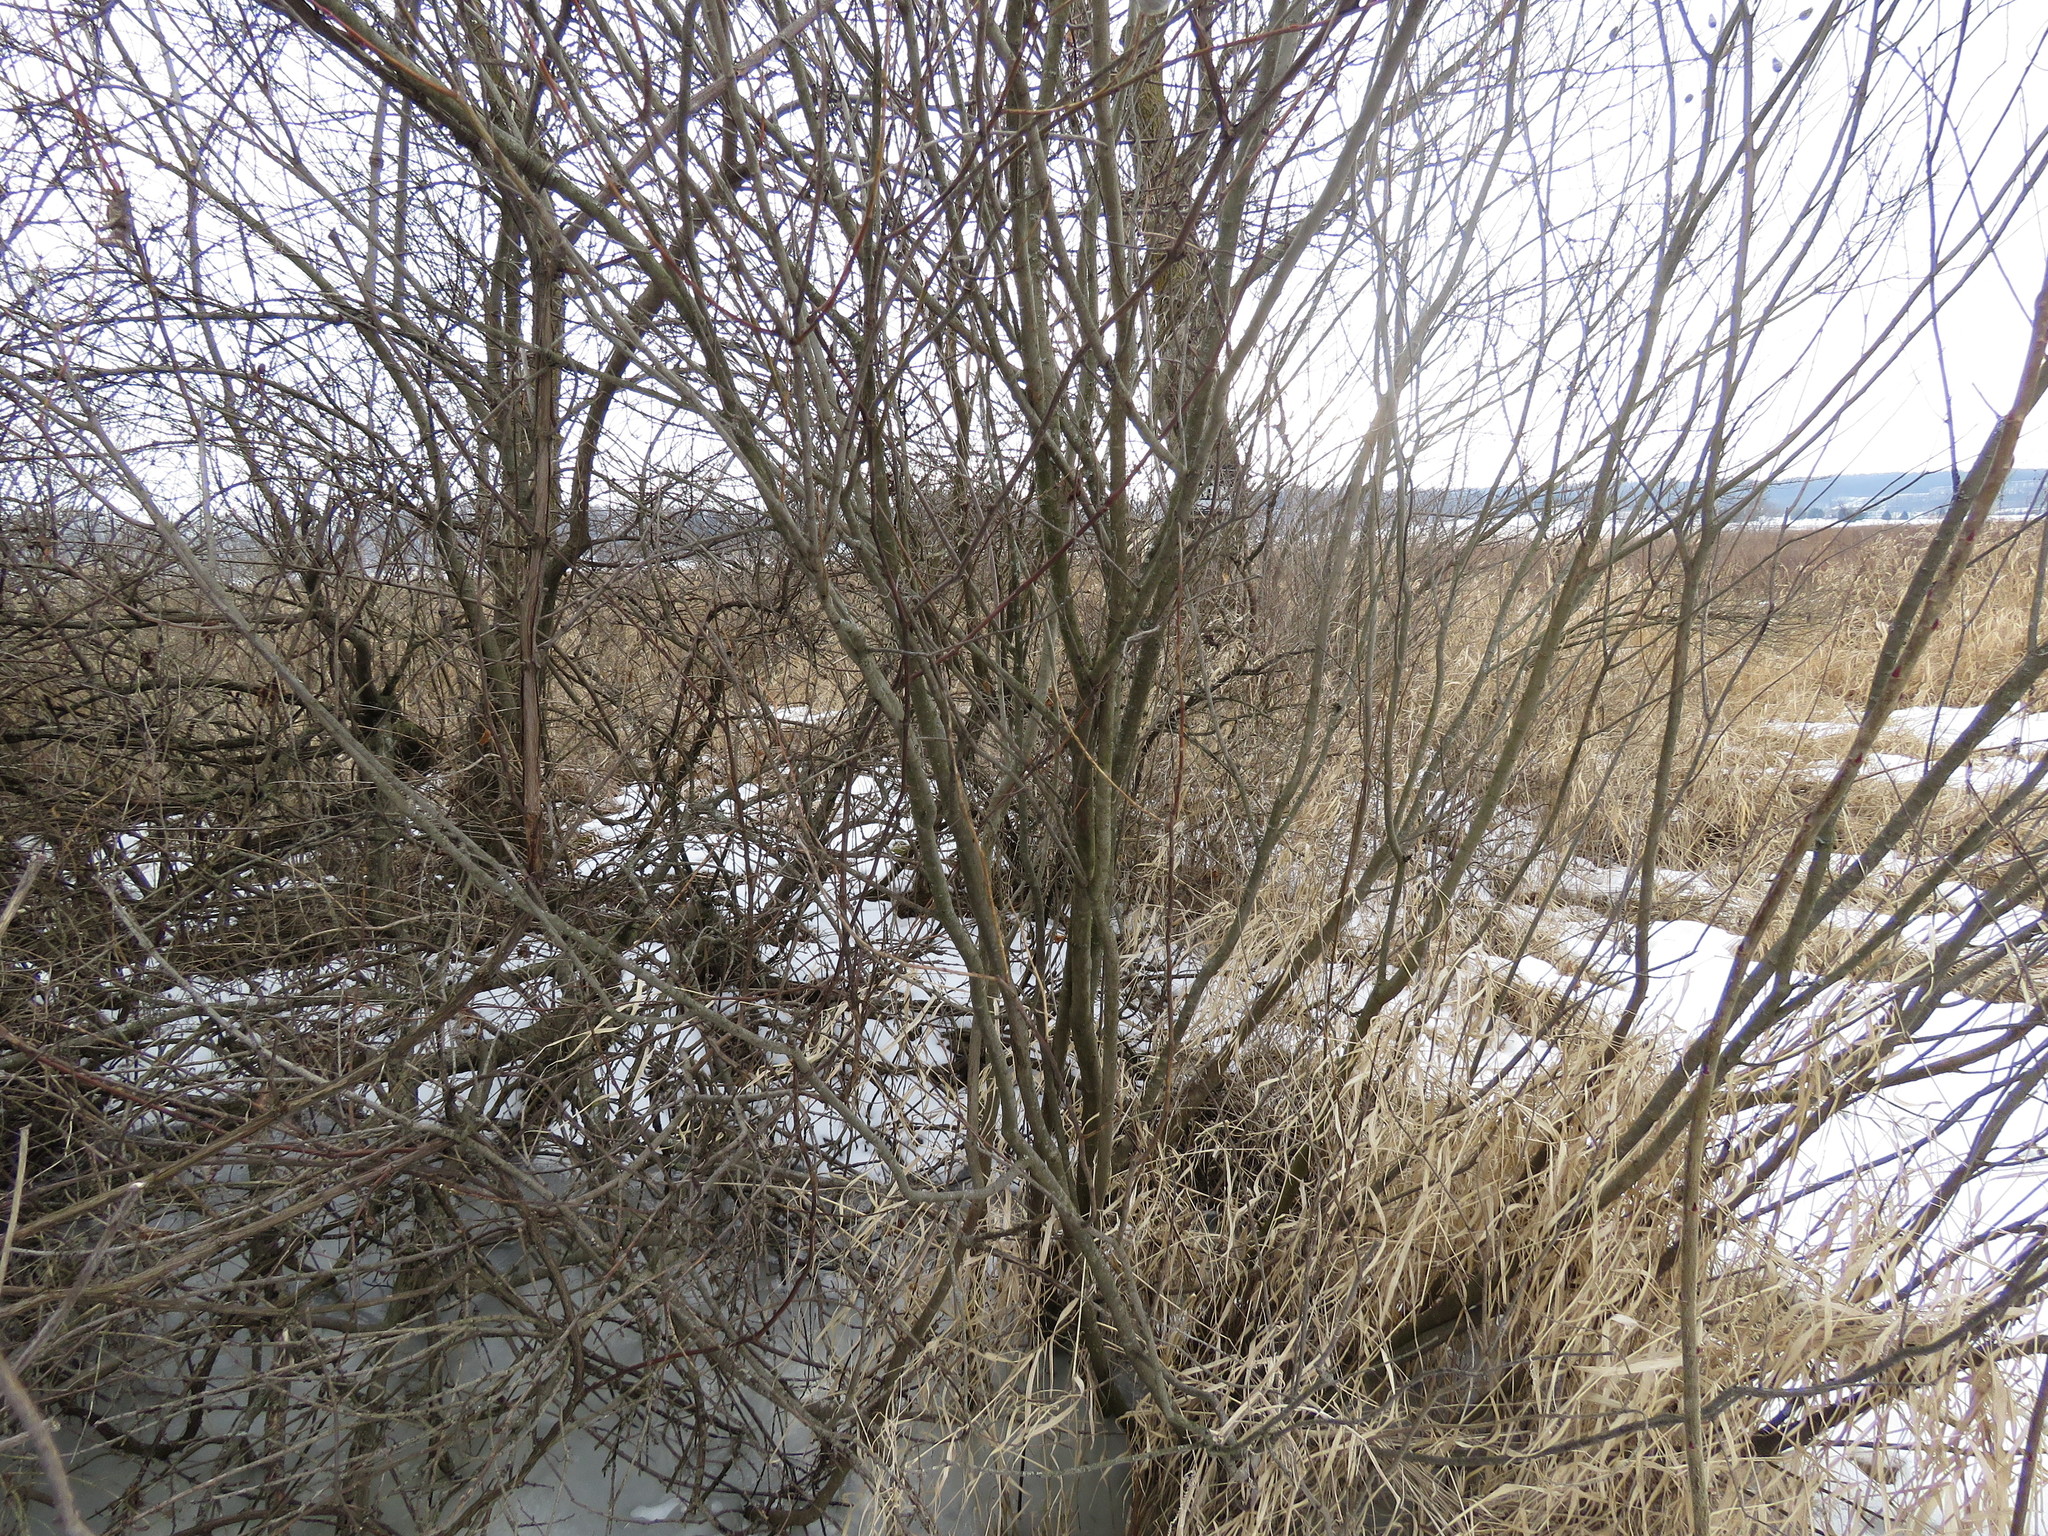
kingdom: Animalia
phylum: Arthropoda
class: Insecta
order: Diptera
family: Cecidomyiidae
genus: Rabdophaga
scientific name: Rabdophaga strobiloides
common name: Willow pinecone gall midge
